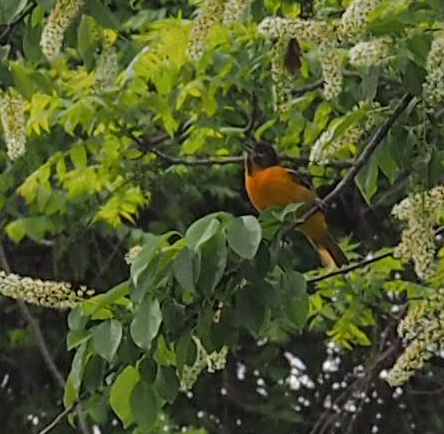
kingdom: Animalia
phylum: Chordata
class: Aves
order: Passeriformes
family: Icteridae
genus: Icterus
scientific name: Icterus galbula
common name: Baltimore oriole
